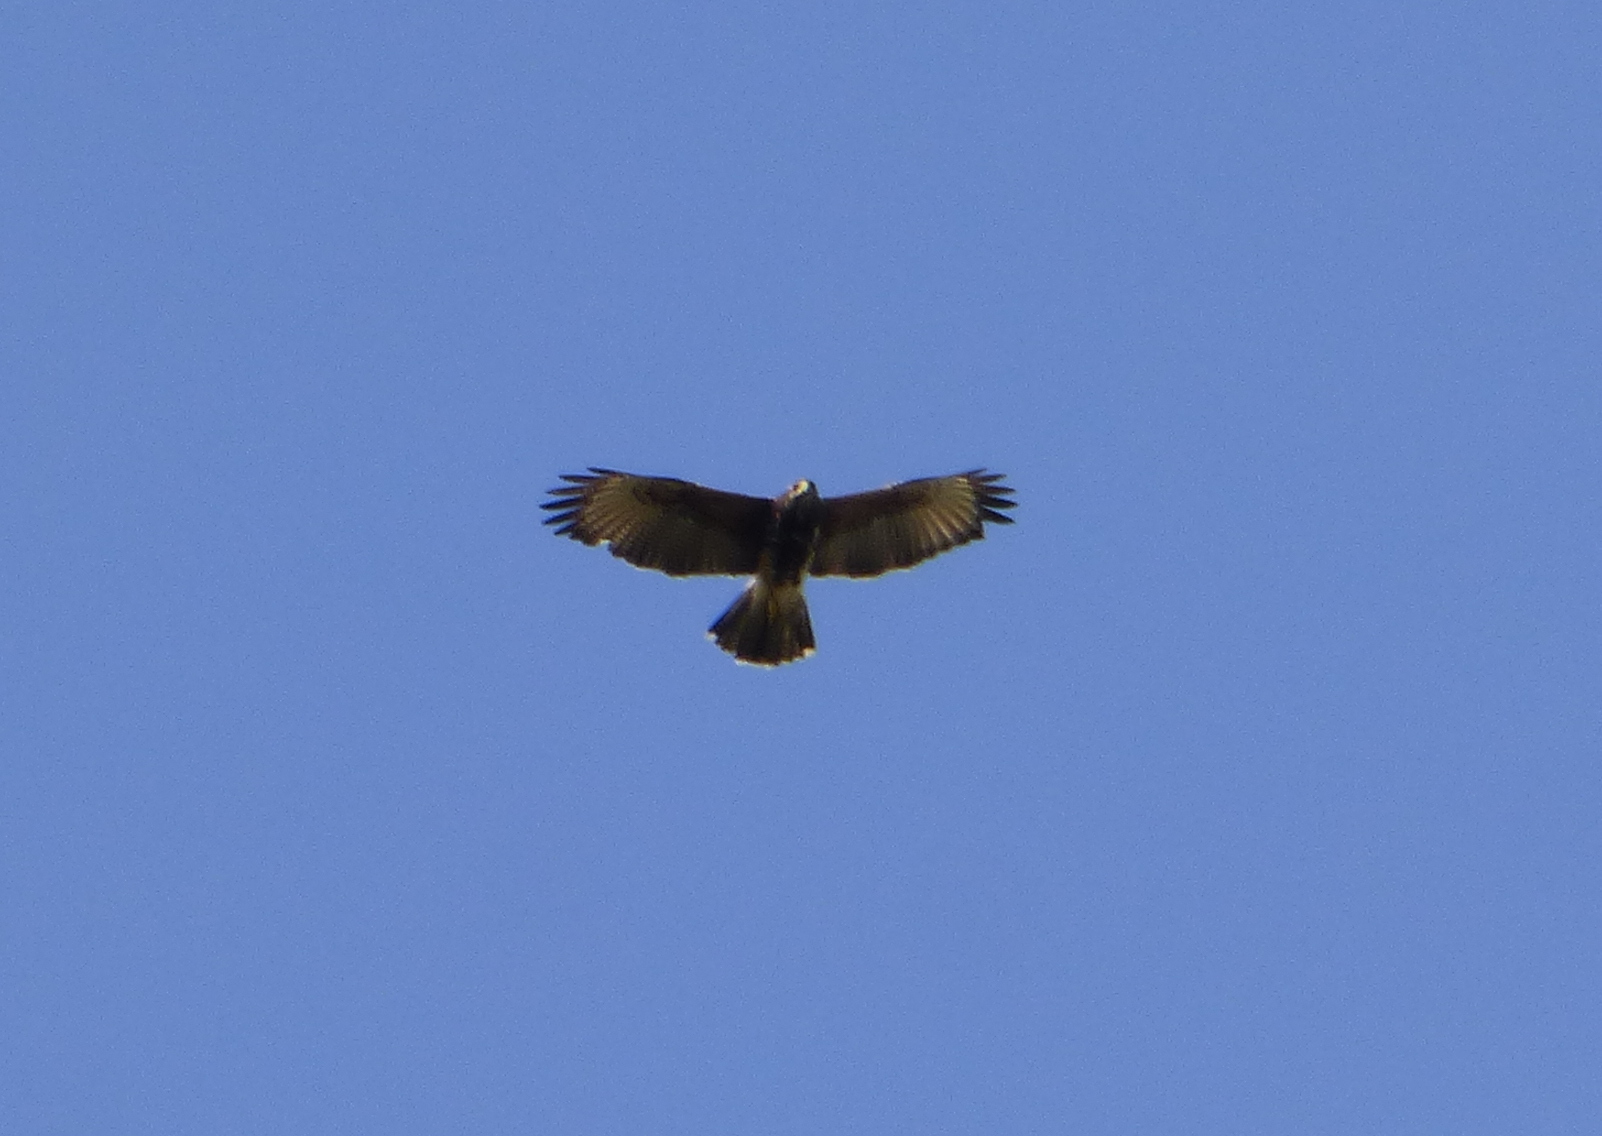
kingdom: Animalia
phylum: Chordata
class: Aves
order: Accipitriformes
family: Accipitridae
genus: Parabuteo
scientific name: Parabuteo unicinctus
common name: Harris's hawk
